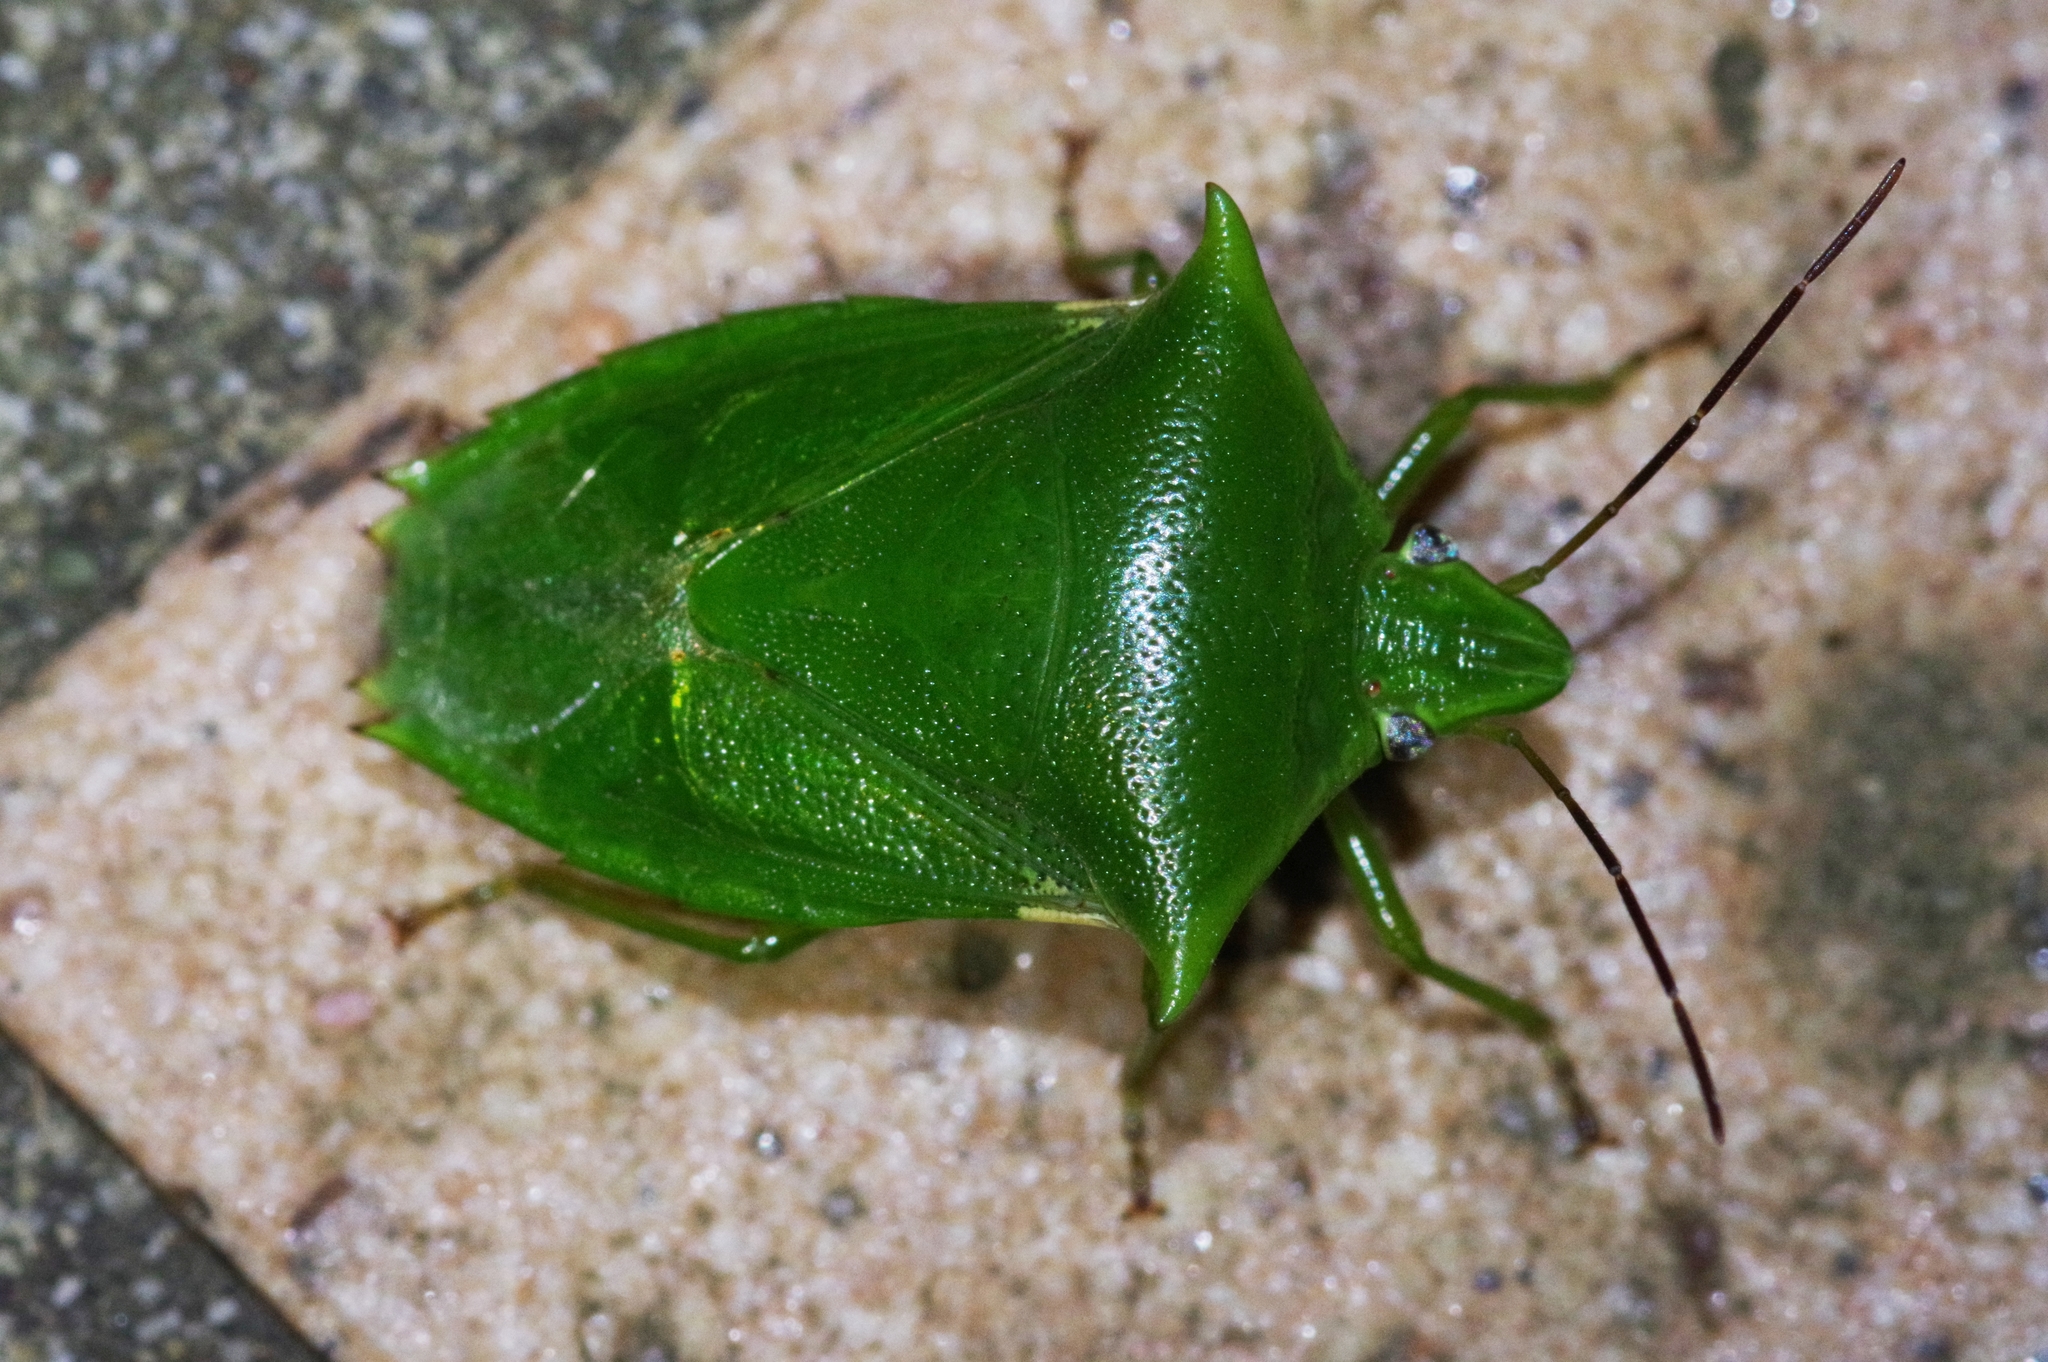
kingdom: Animalia
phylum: Arthropoda
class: Insecta
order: Hemiptera
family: Pentatomidae
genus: Vitellus
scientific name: Vitellus
